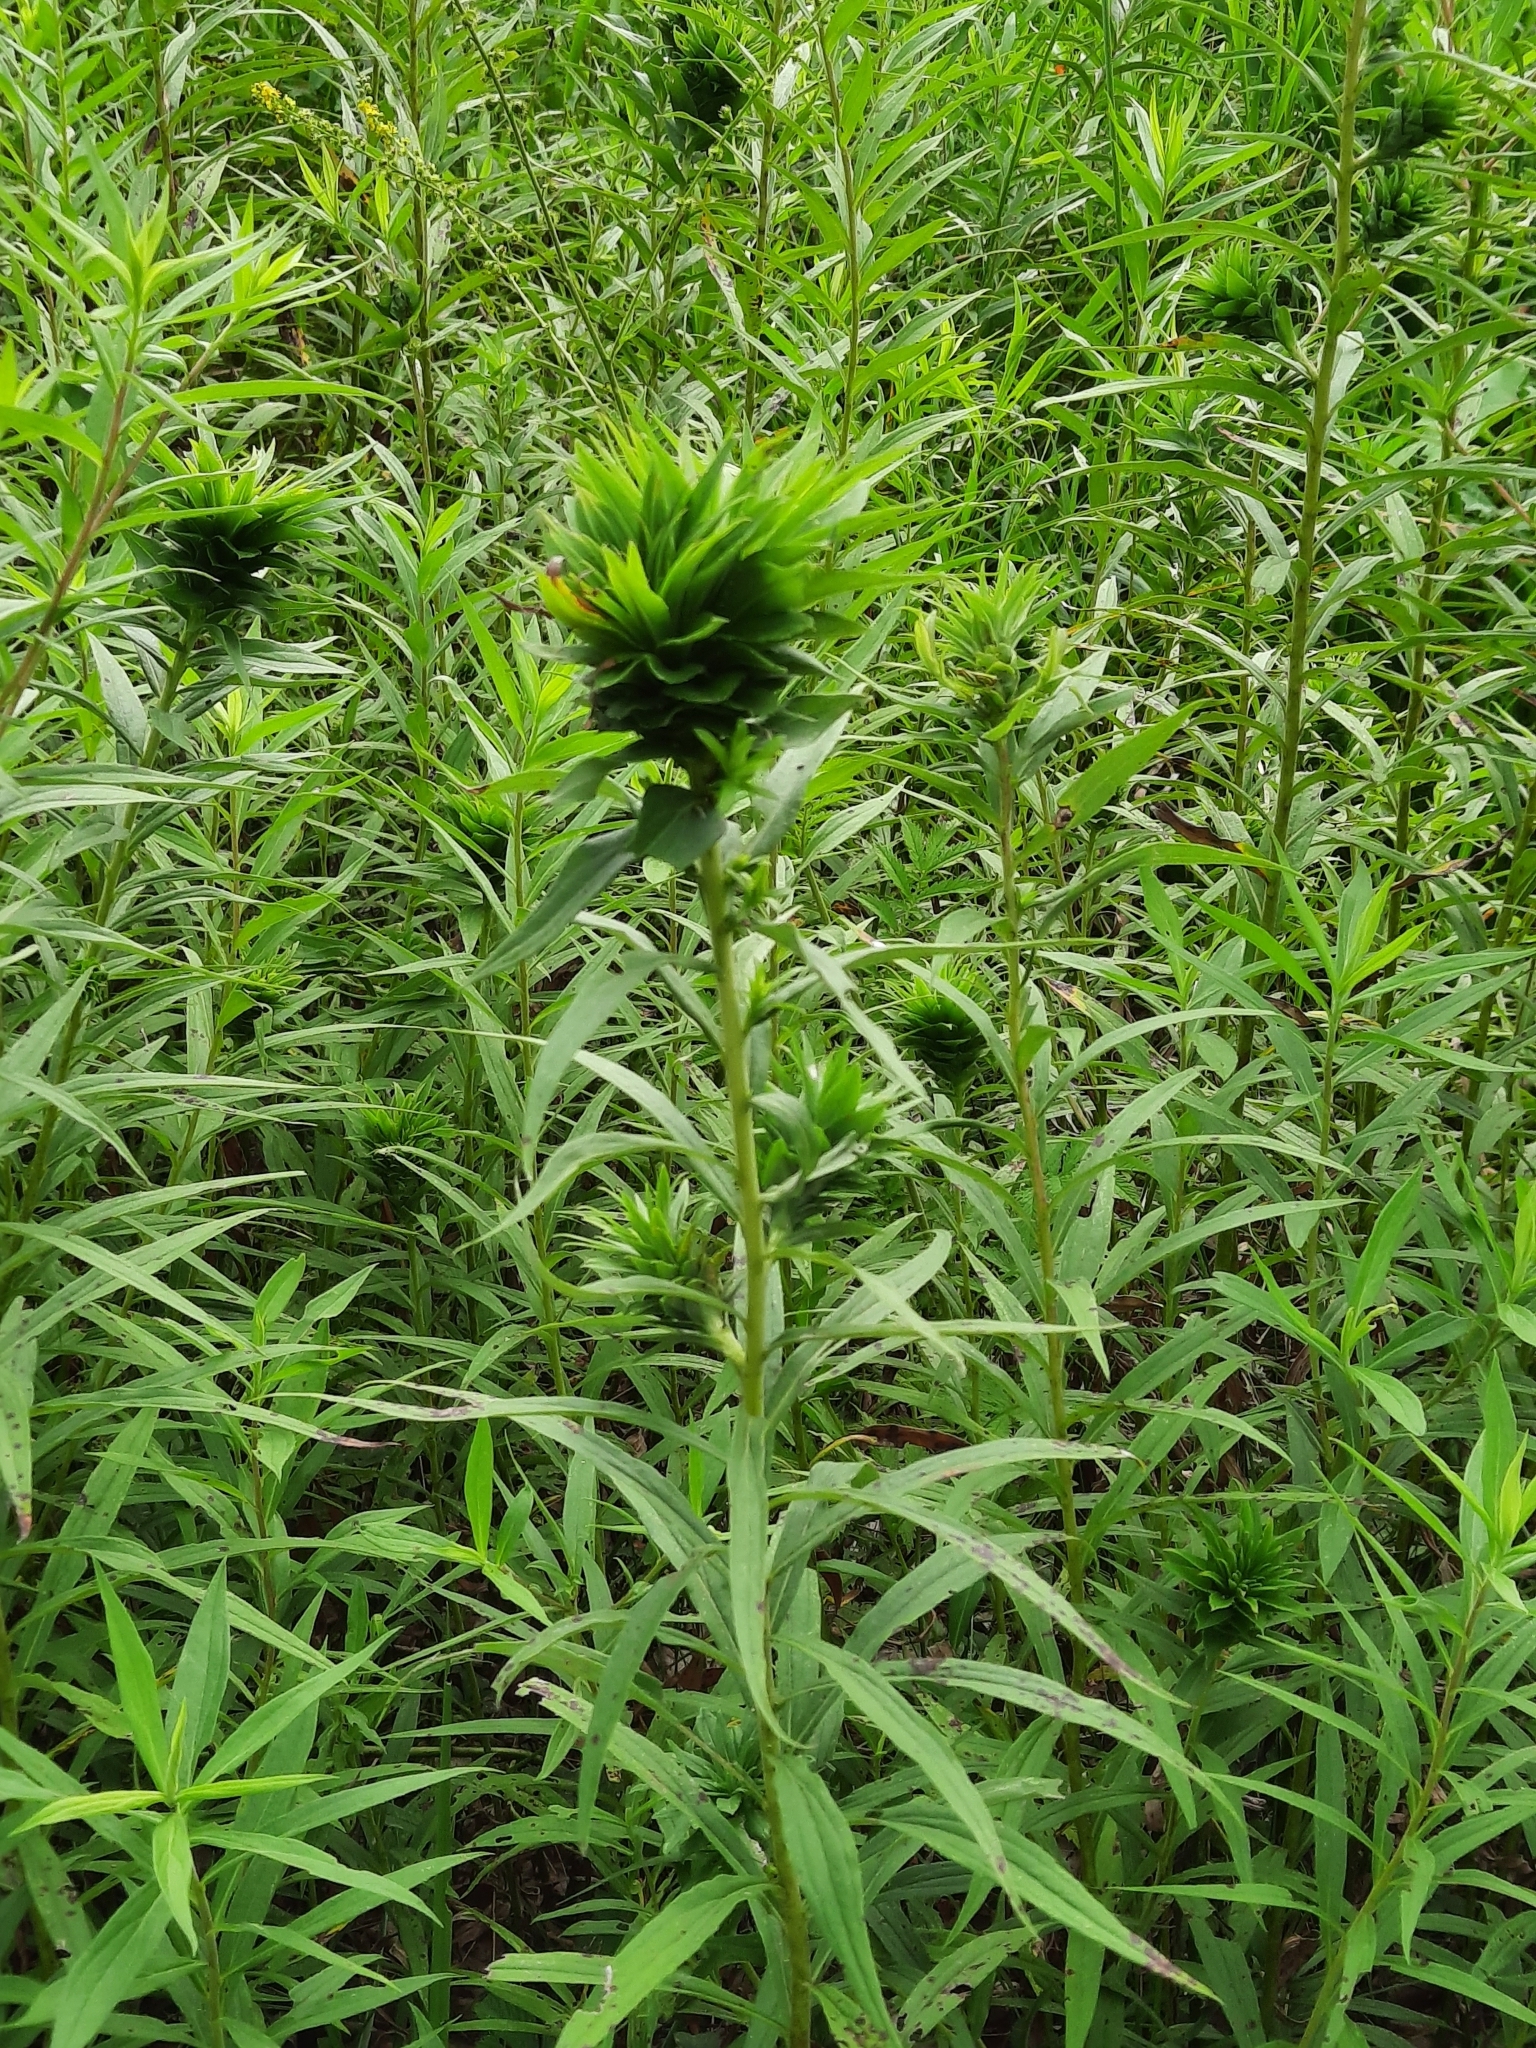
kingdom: Animalia
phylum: Arthropoda
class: Insecta
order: Diptera
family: Cecidomyiidae
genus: Rhopalomyia
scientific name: Rhopalomyia solidaginis
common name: Goldenrod bunch gall midge
